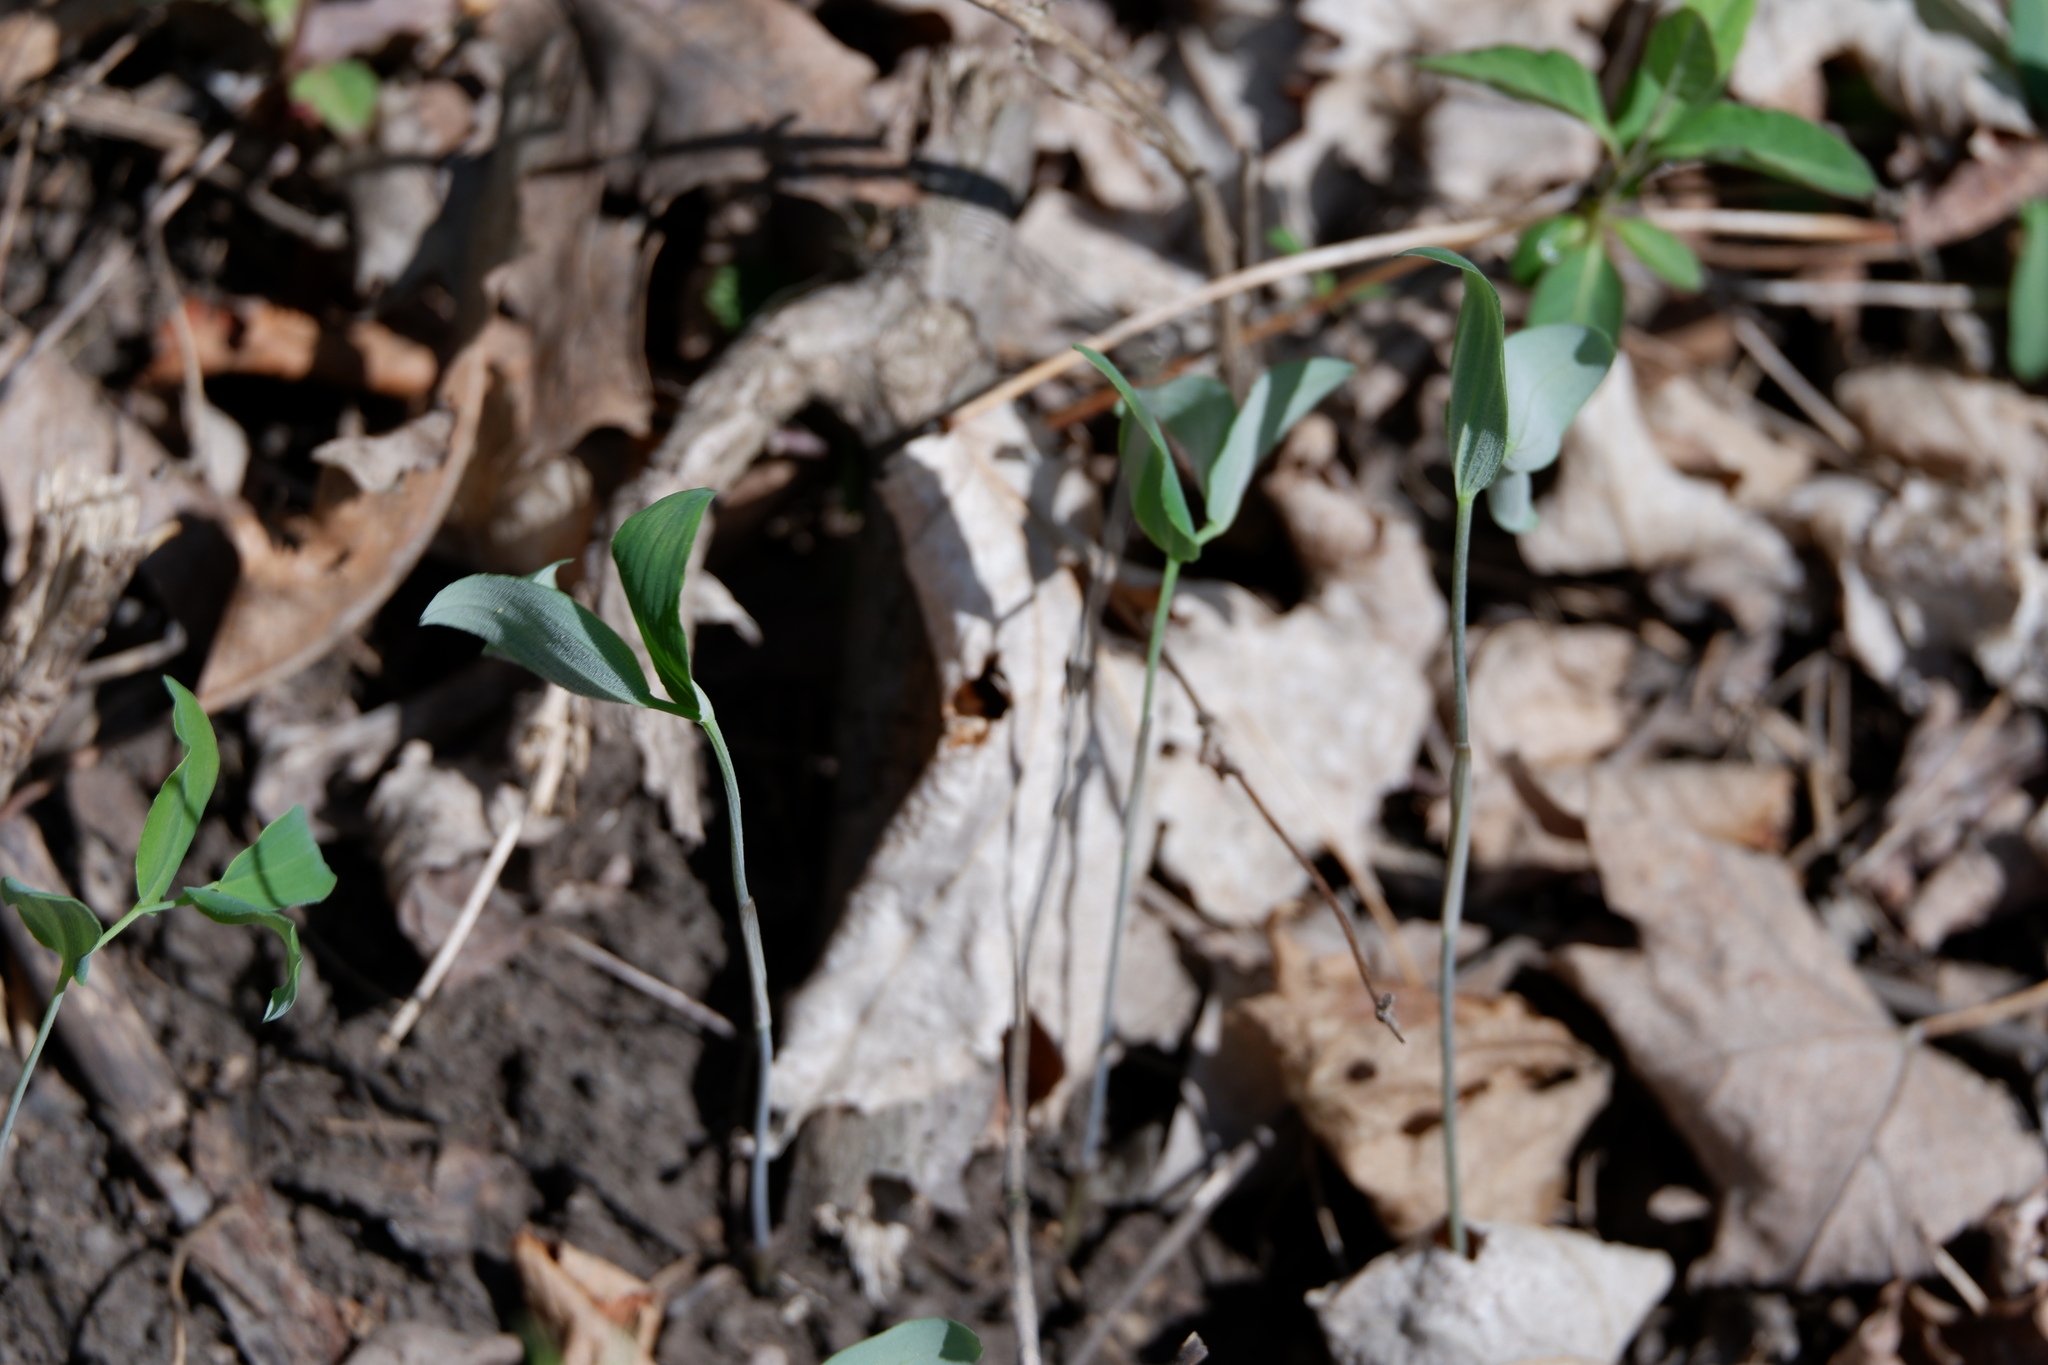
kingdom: Plantae
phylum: Tracheophyta
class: Liliopsida
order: Asparagales
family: Asparagaceae
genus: Polygonatum
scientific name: Polygonatum pubescens
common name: Downy solomon's seal
